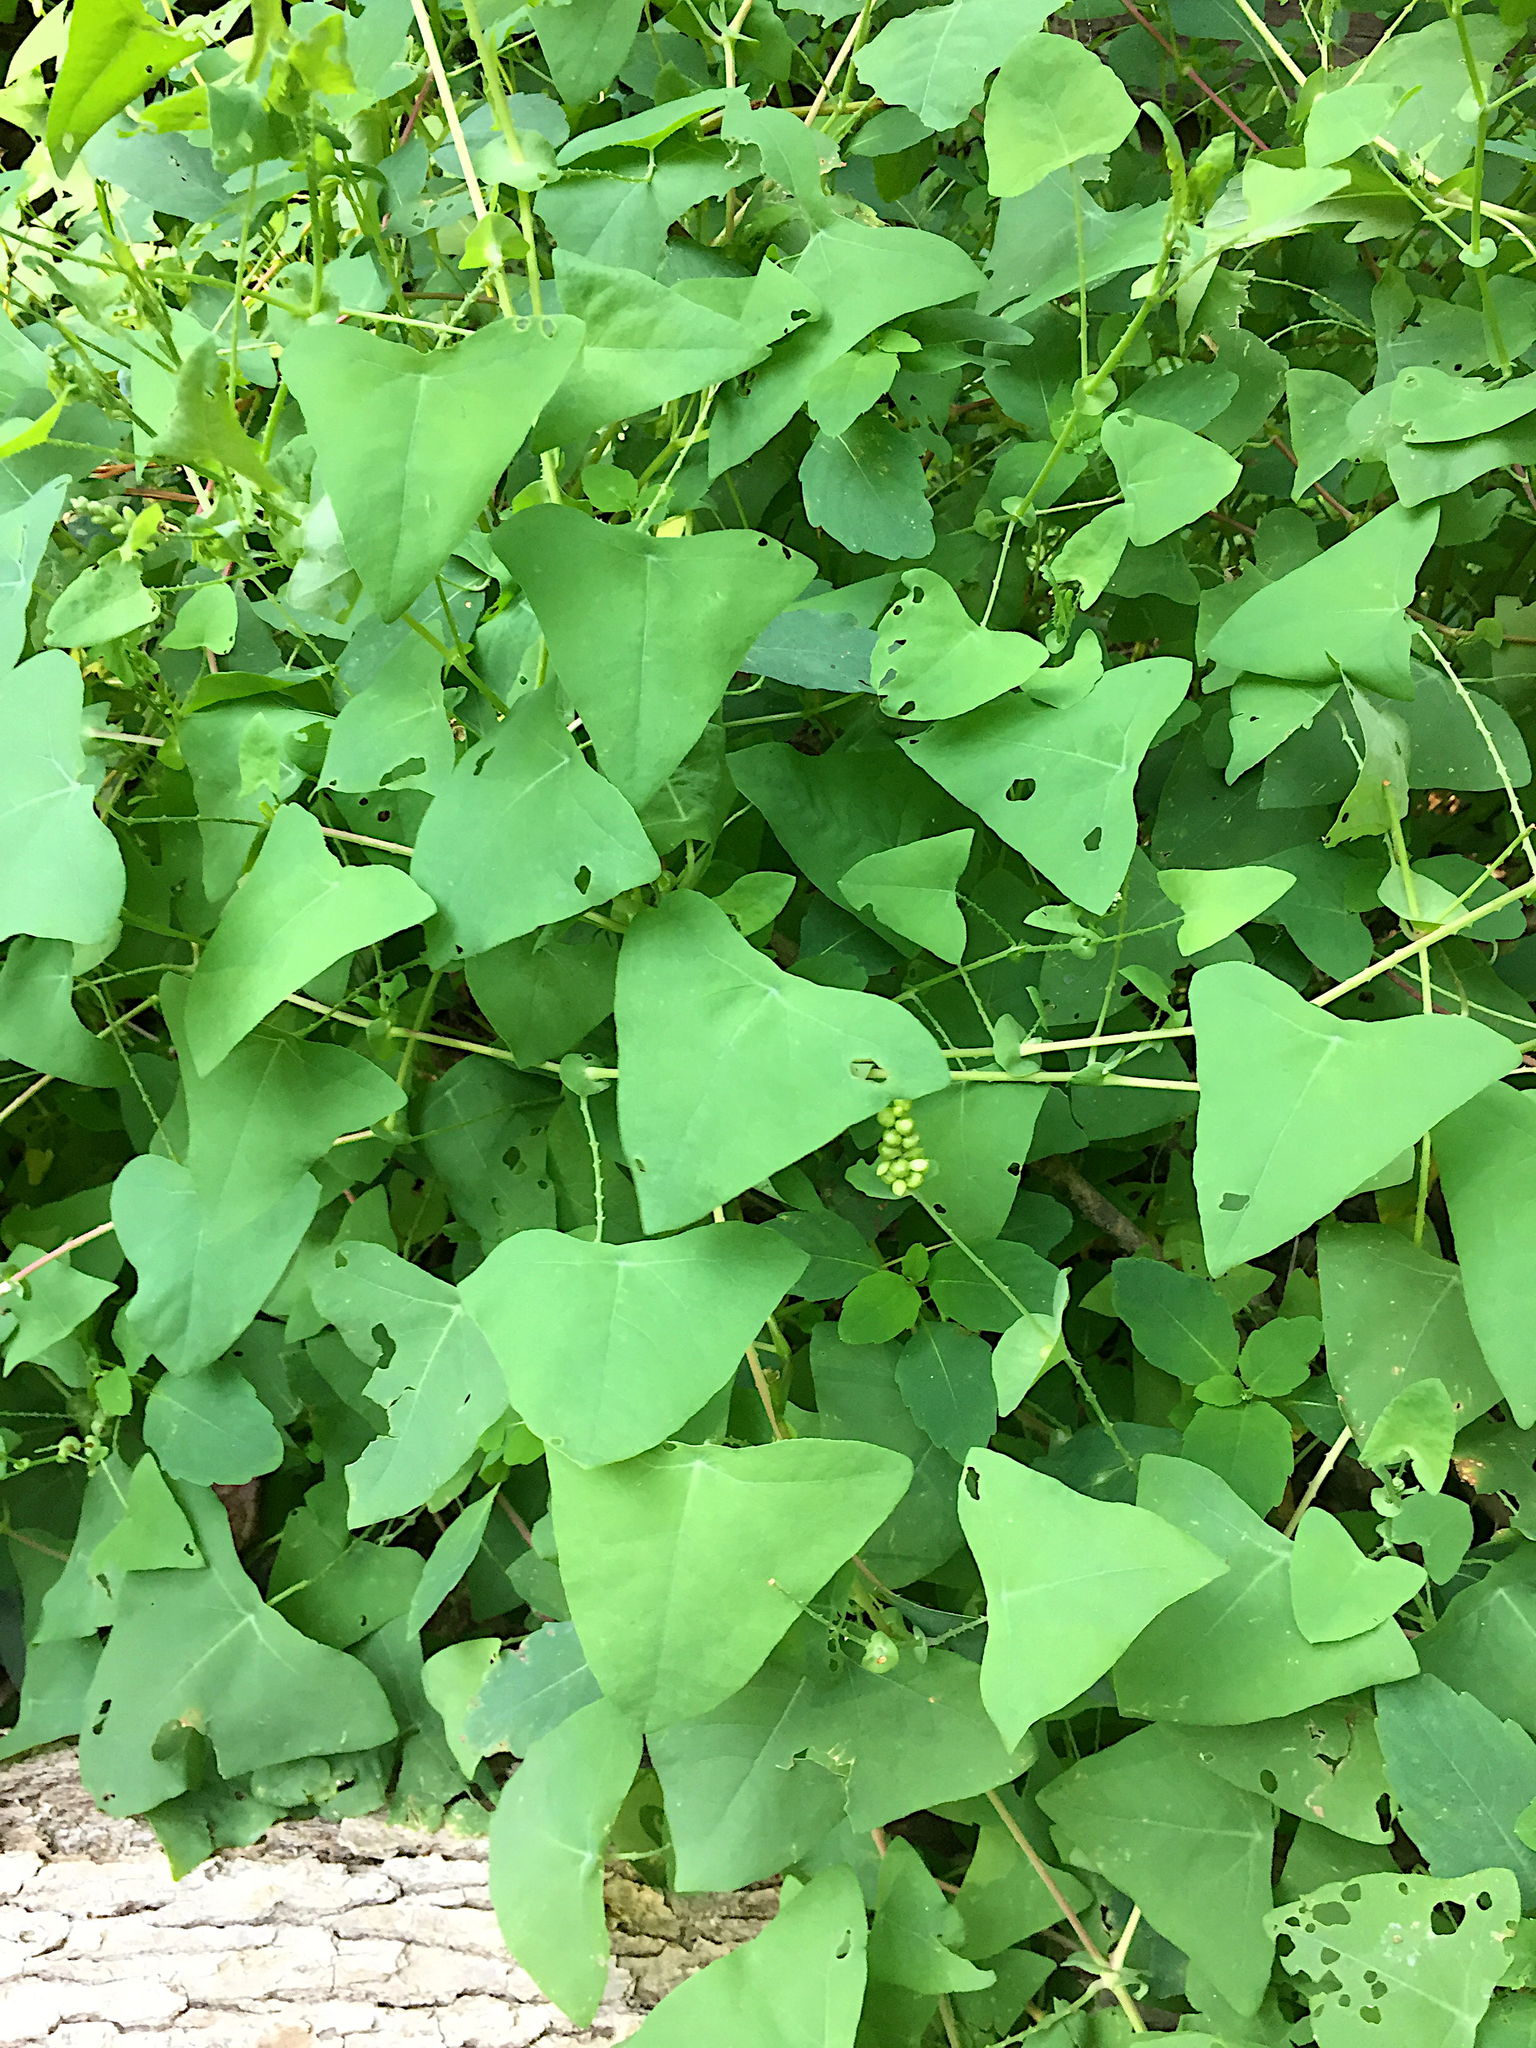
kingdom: Plantae
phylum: Tracheophyta
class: Magnoliopsida
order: Caryophyllales
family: Polygonaceae
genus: Persicaria
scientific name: Persicaria perfoliata
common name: Asiatic tearthumb
